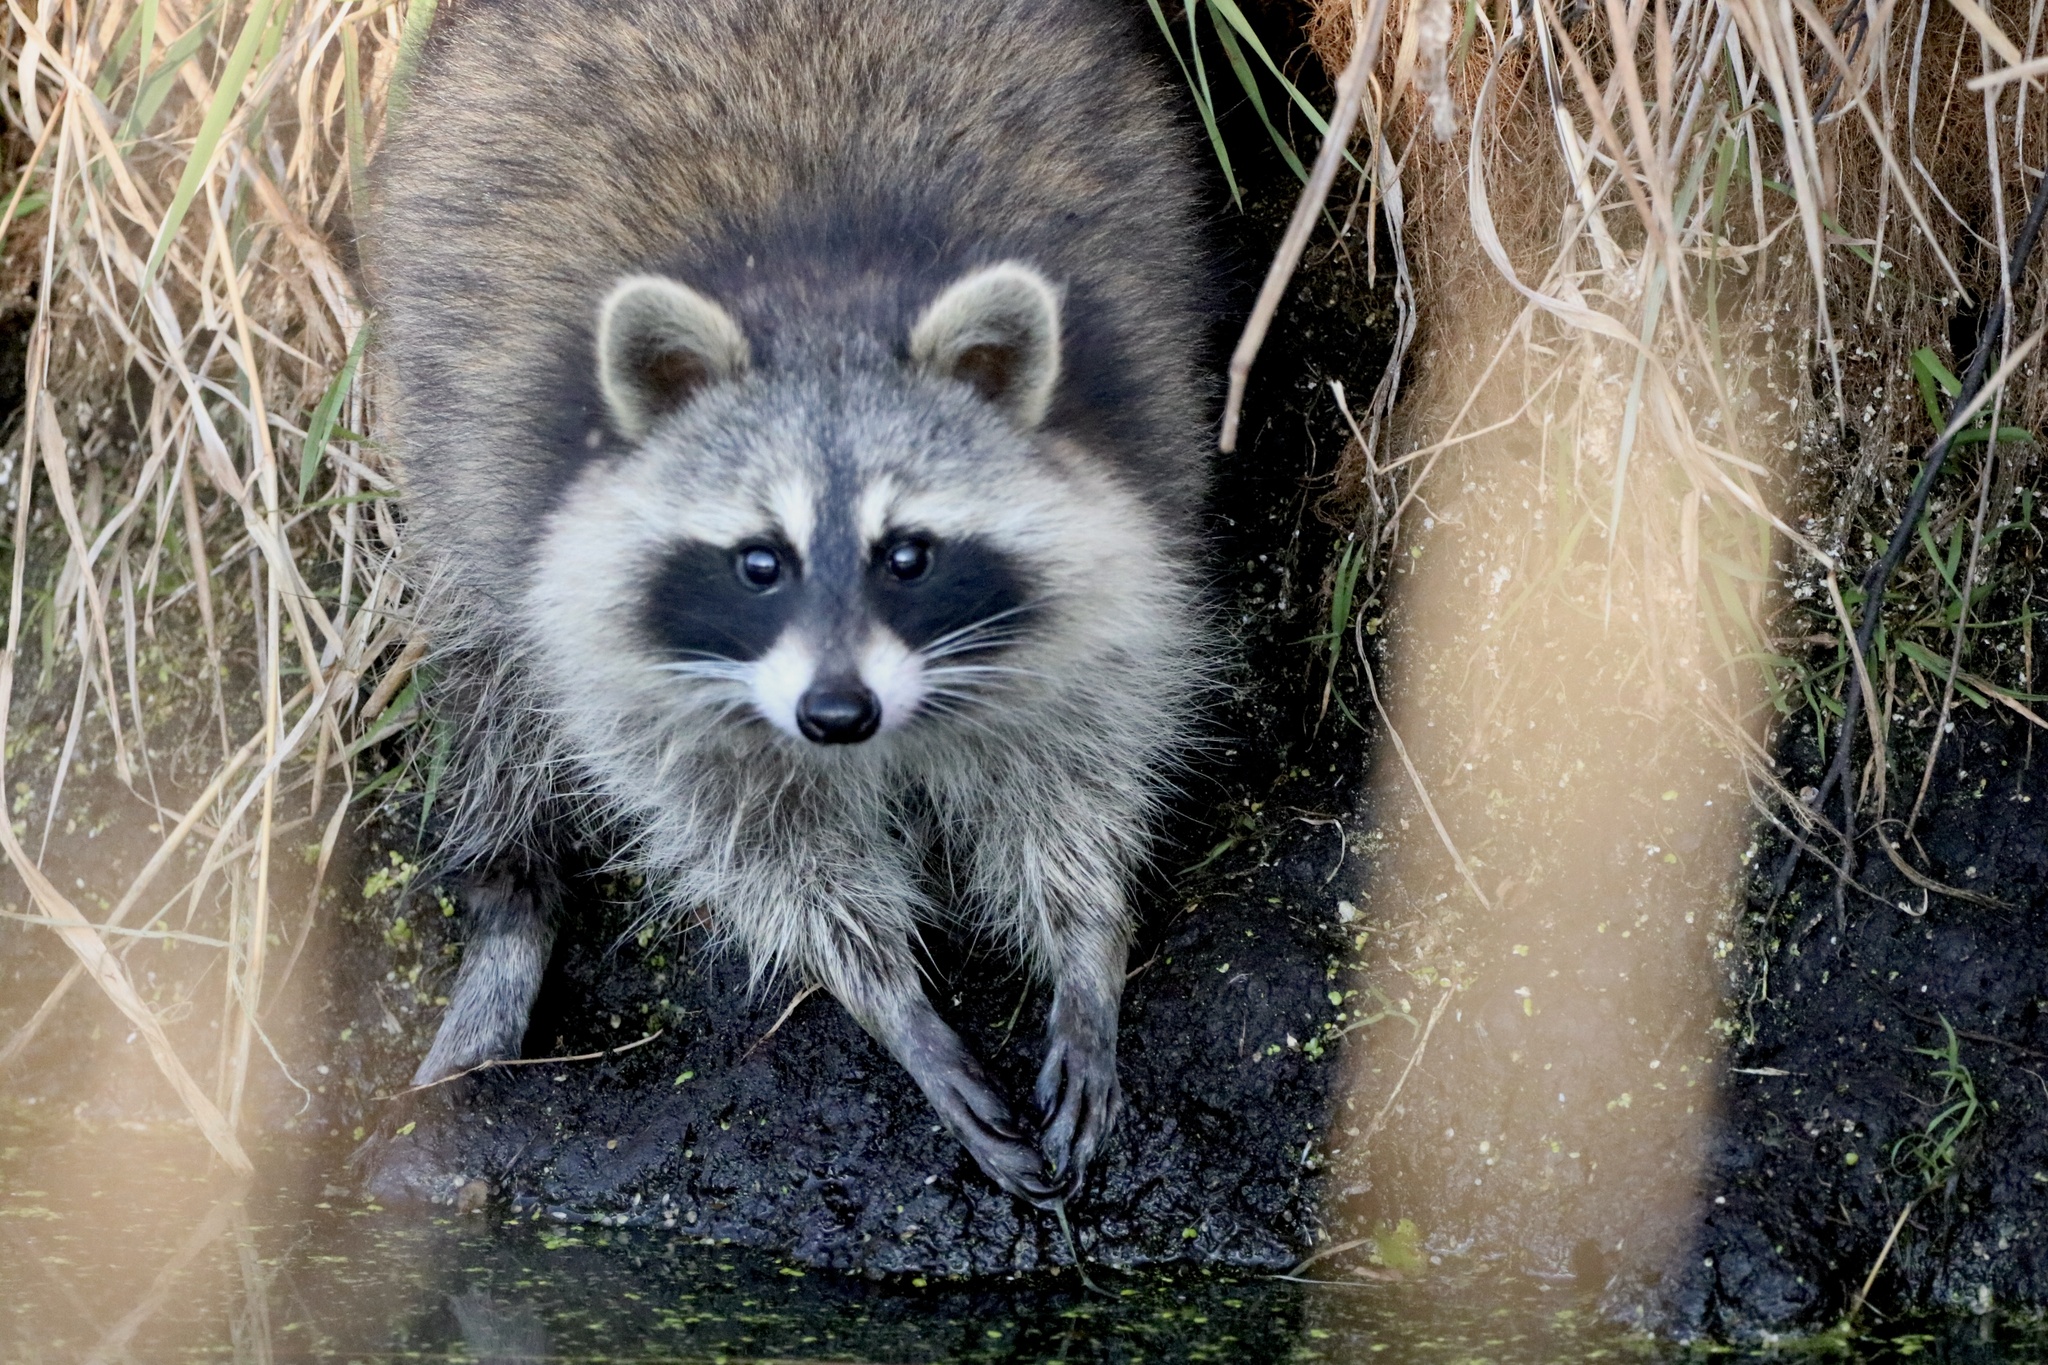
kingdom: Animalia
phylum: Chordata
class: Mammalia
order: Carnivora
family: Procyonidae
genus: Procyon
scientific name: Procyon lotor
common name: Raccoon
